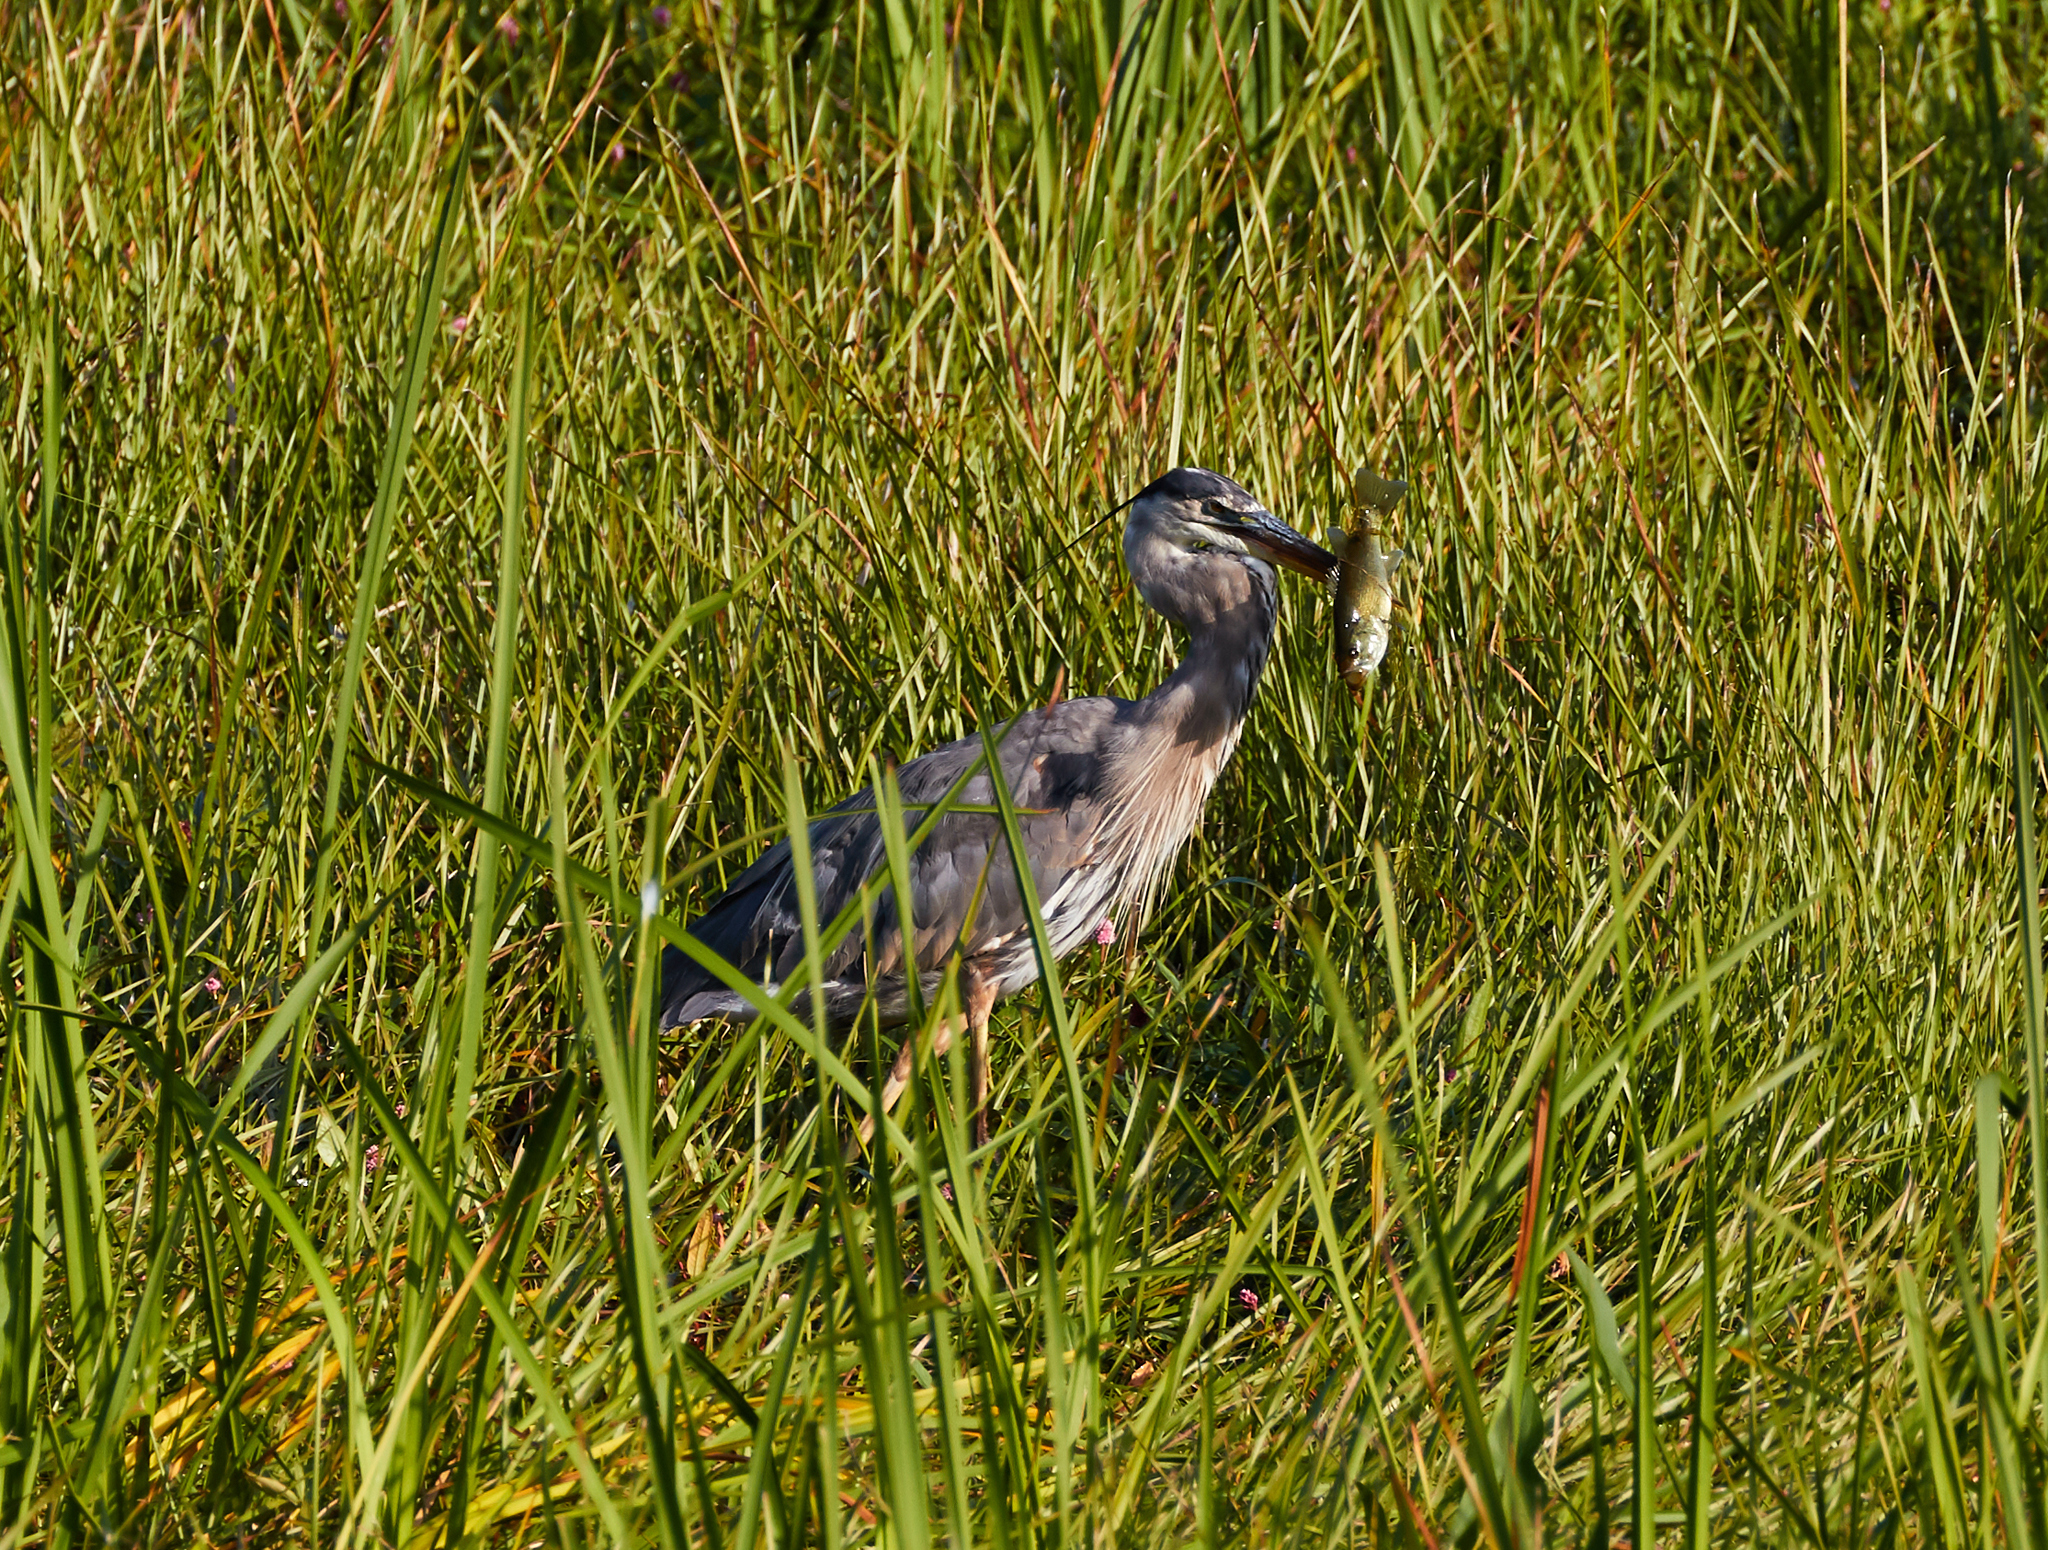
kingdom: Animalia
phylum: Chordata
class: Aves
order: Pelecaniformes
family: Ardeidae
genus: Ardea
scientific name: Ardea herodias
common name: Great blue heron
